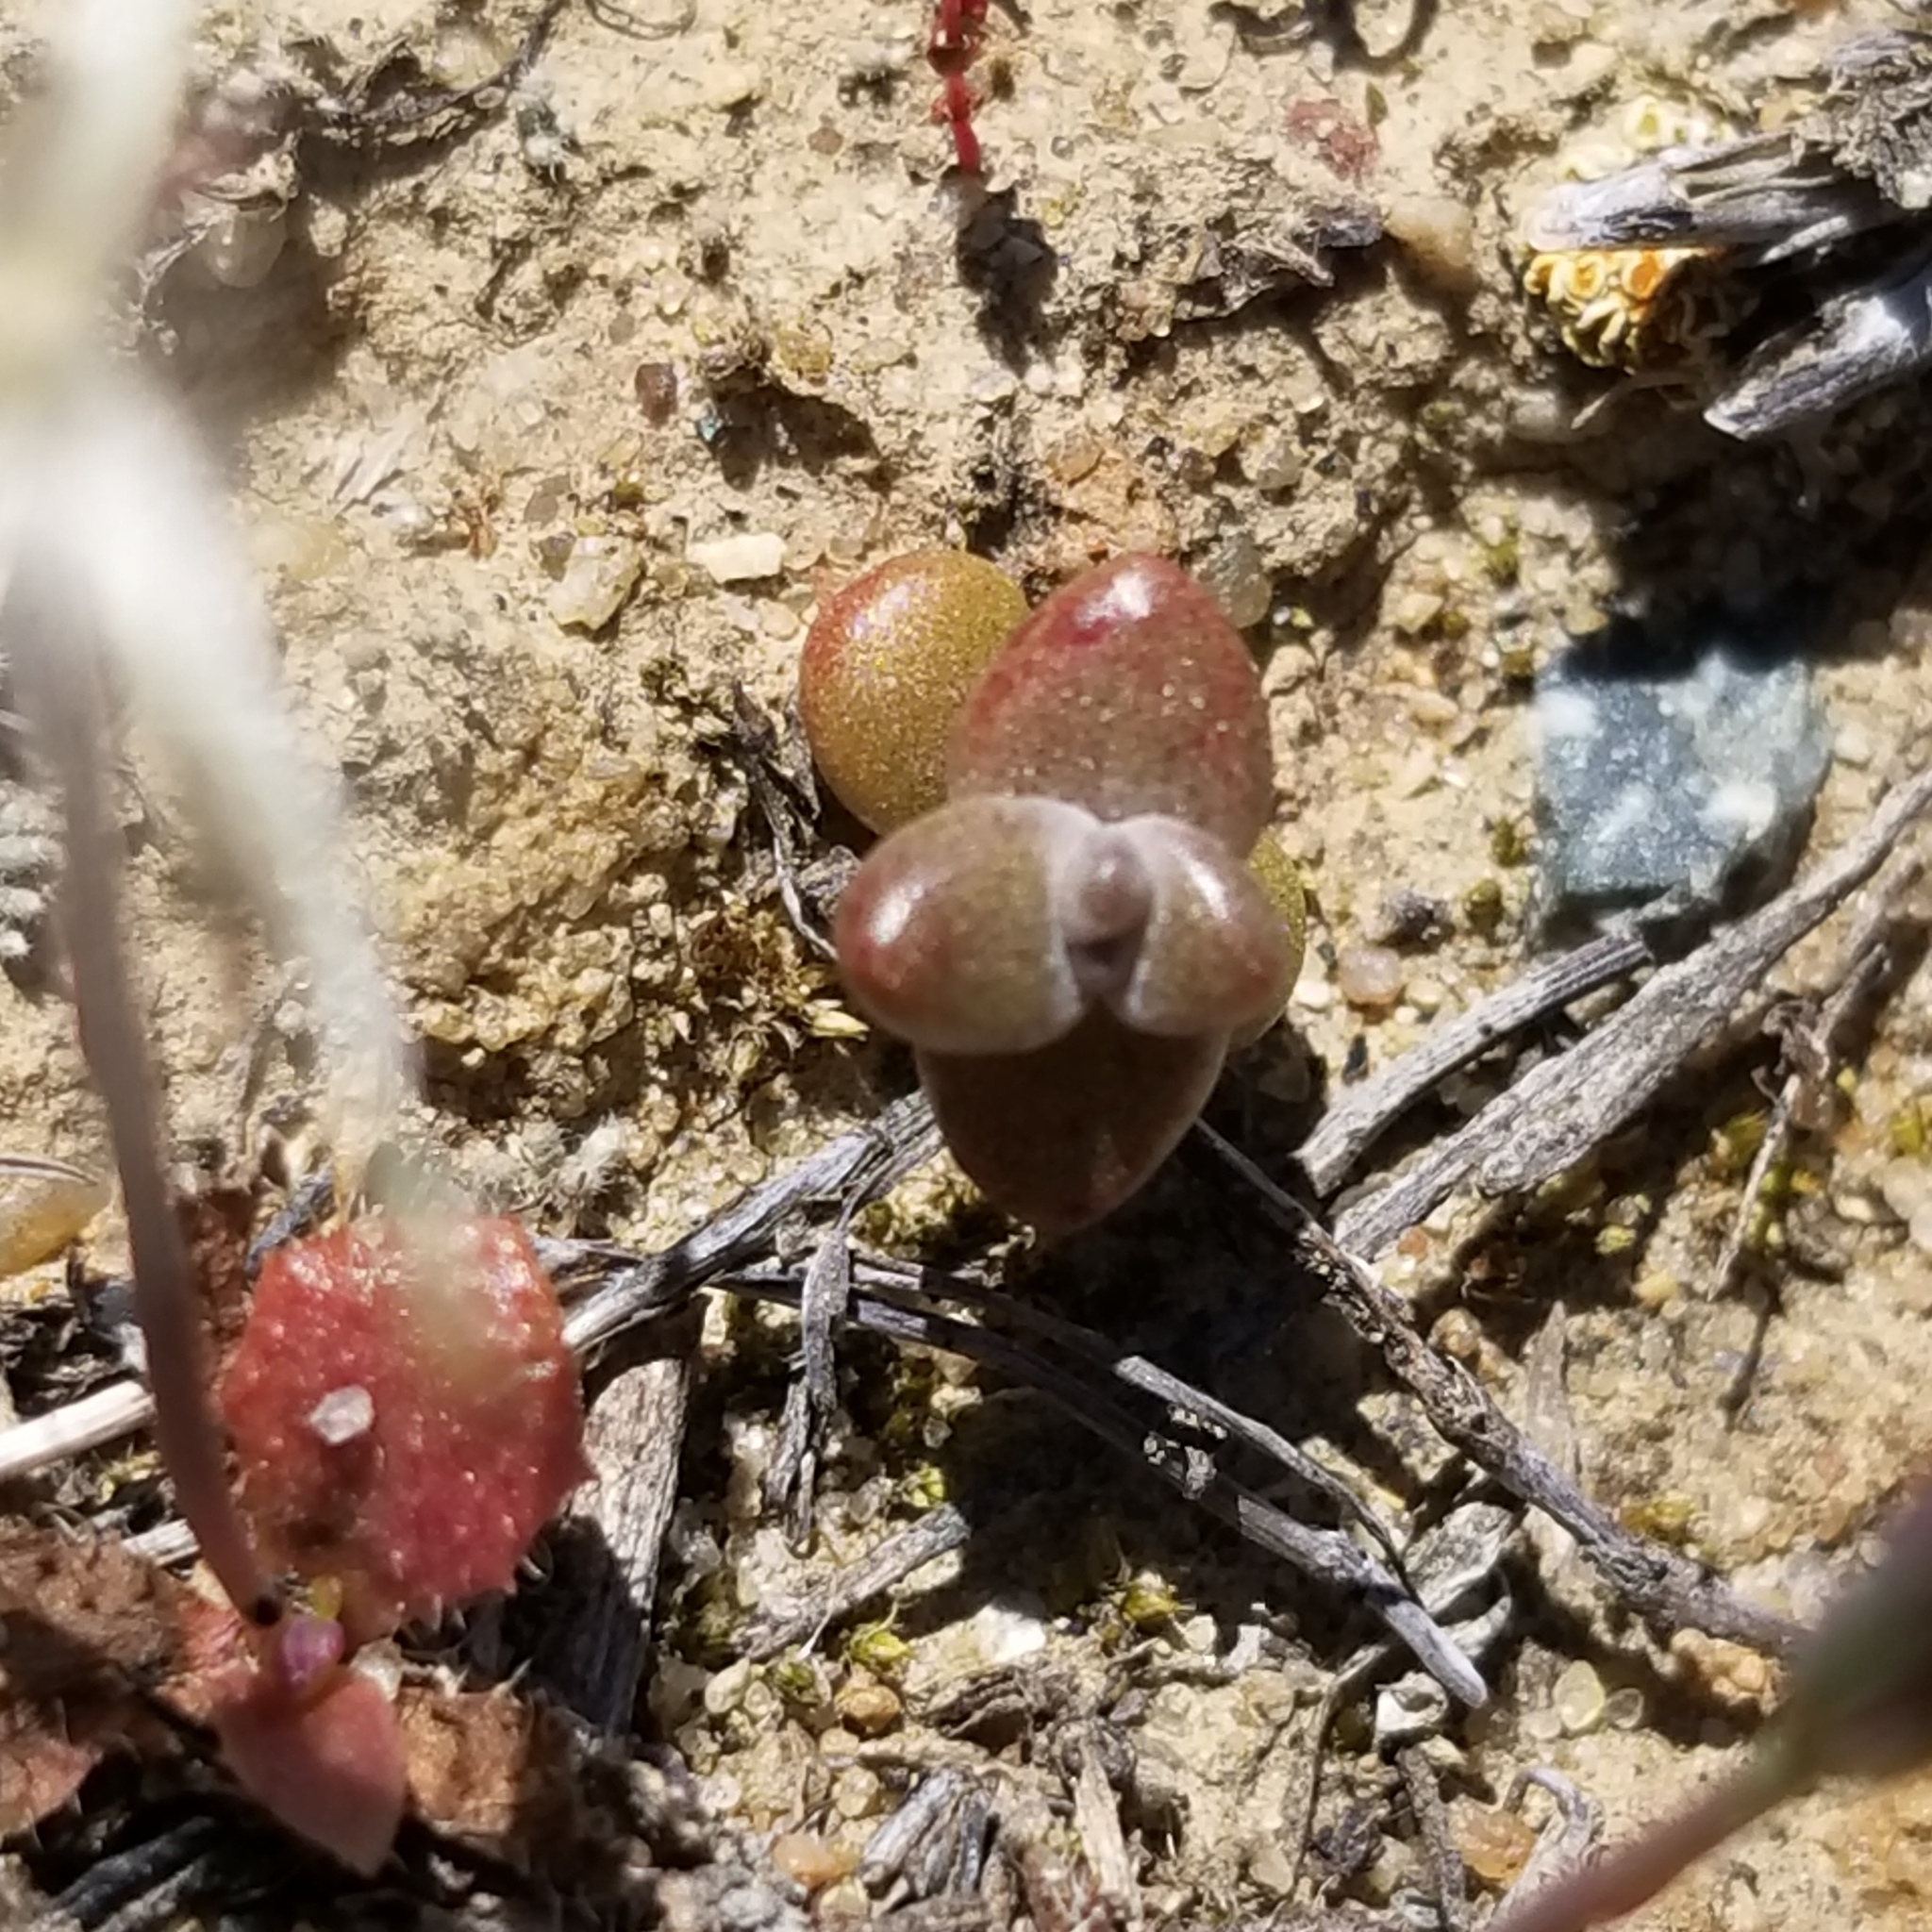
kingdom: Plantae
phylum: Tracheophyta
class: Magnoliopsida
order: Saxifragales
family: Crassulaceae
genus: Dudleya
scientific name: Dudleya blochmaniae
